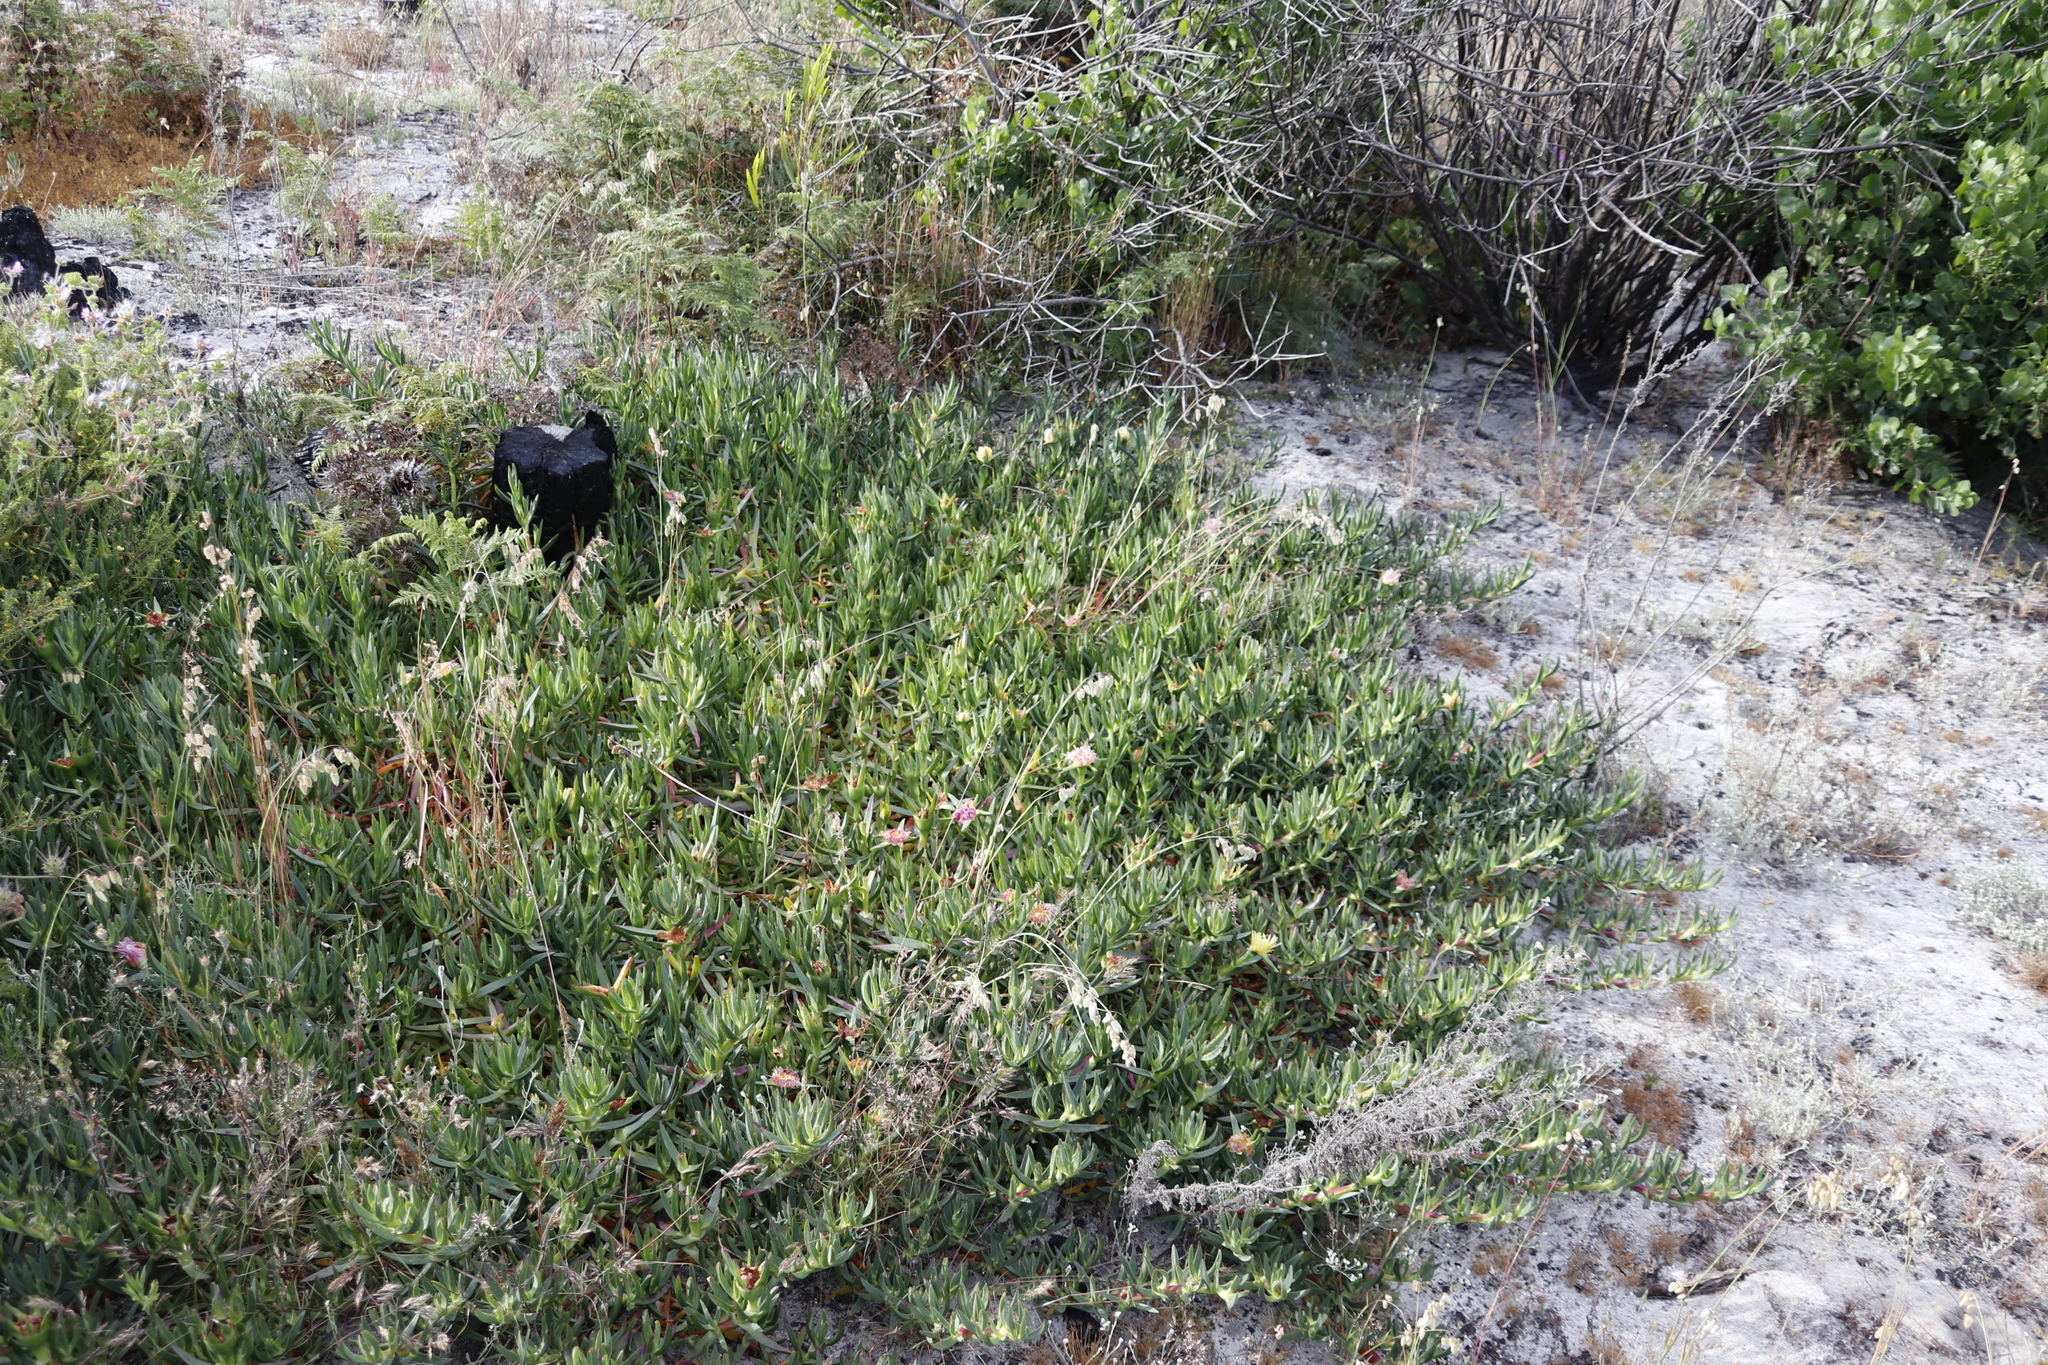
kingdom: Plantae
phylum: Tracheophyta
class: Magnoliopsida
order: Caryophyllales
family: Aizoaceae
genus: Carpobrotus
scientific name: Carpobrotus edulis
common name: Hottentot-fig
